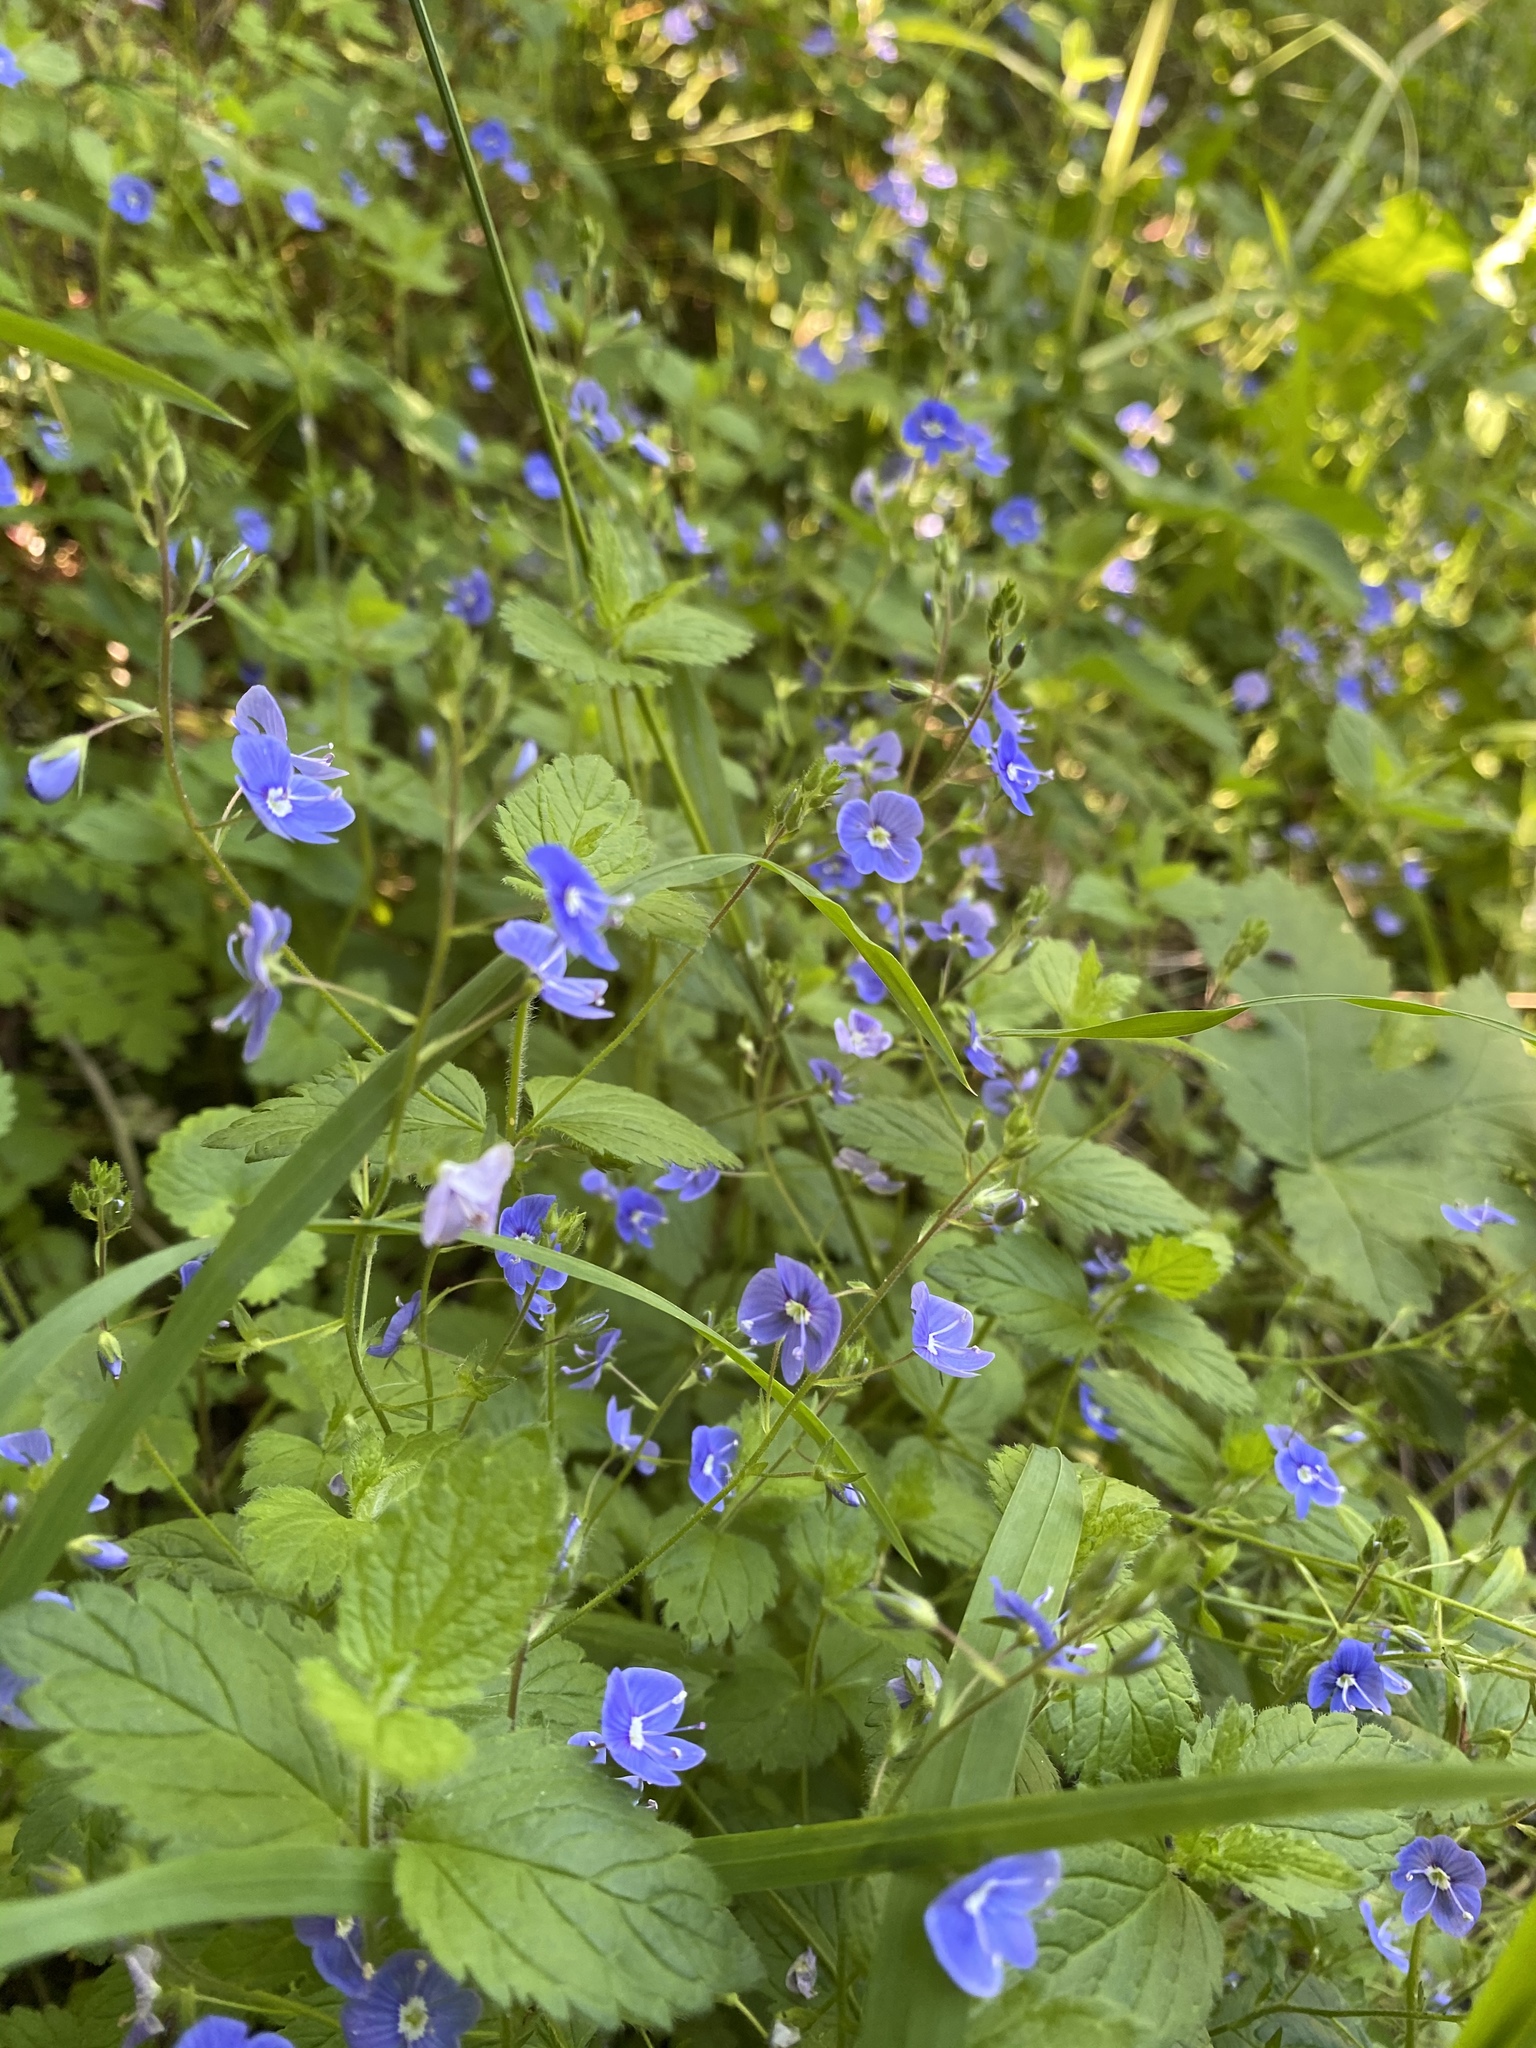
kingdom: Plantae
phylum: Tracheophyta
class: Magnoliopsida
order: Lamiales
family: Plantaginaceae
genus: Veronica
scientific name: Veronica chamaedrys
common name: Germander speedwell
